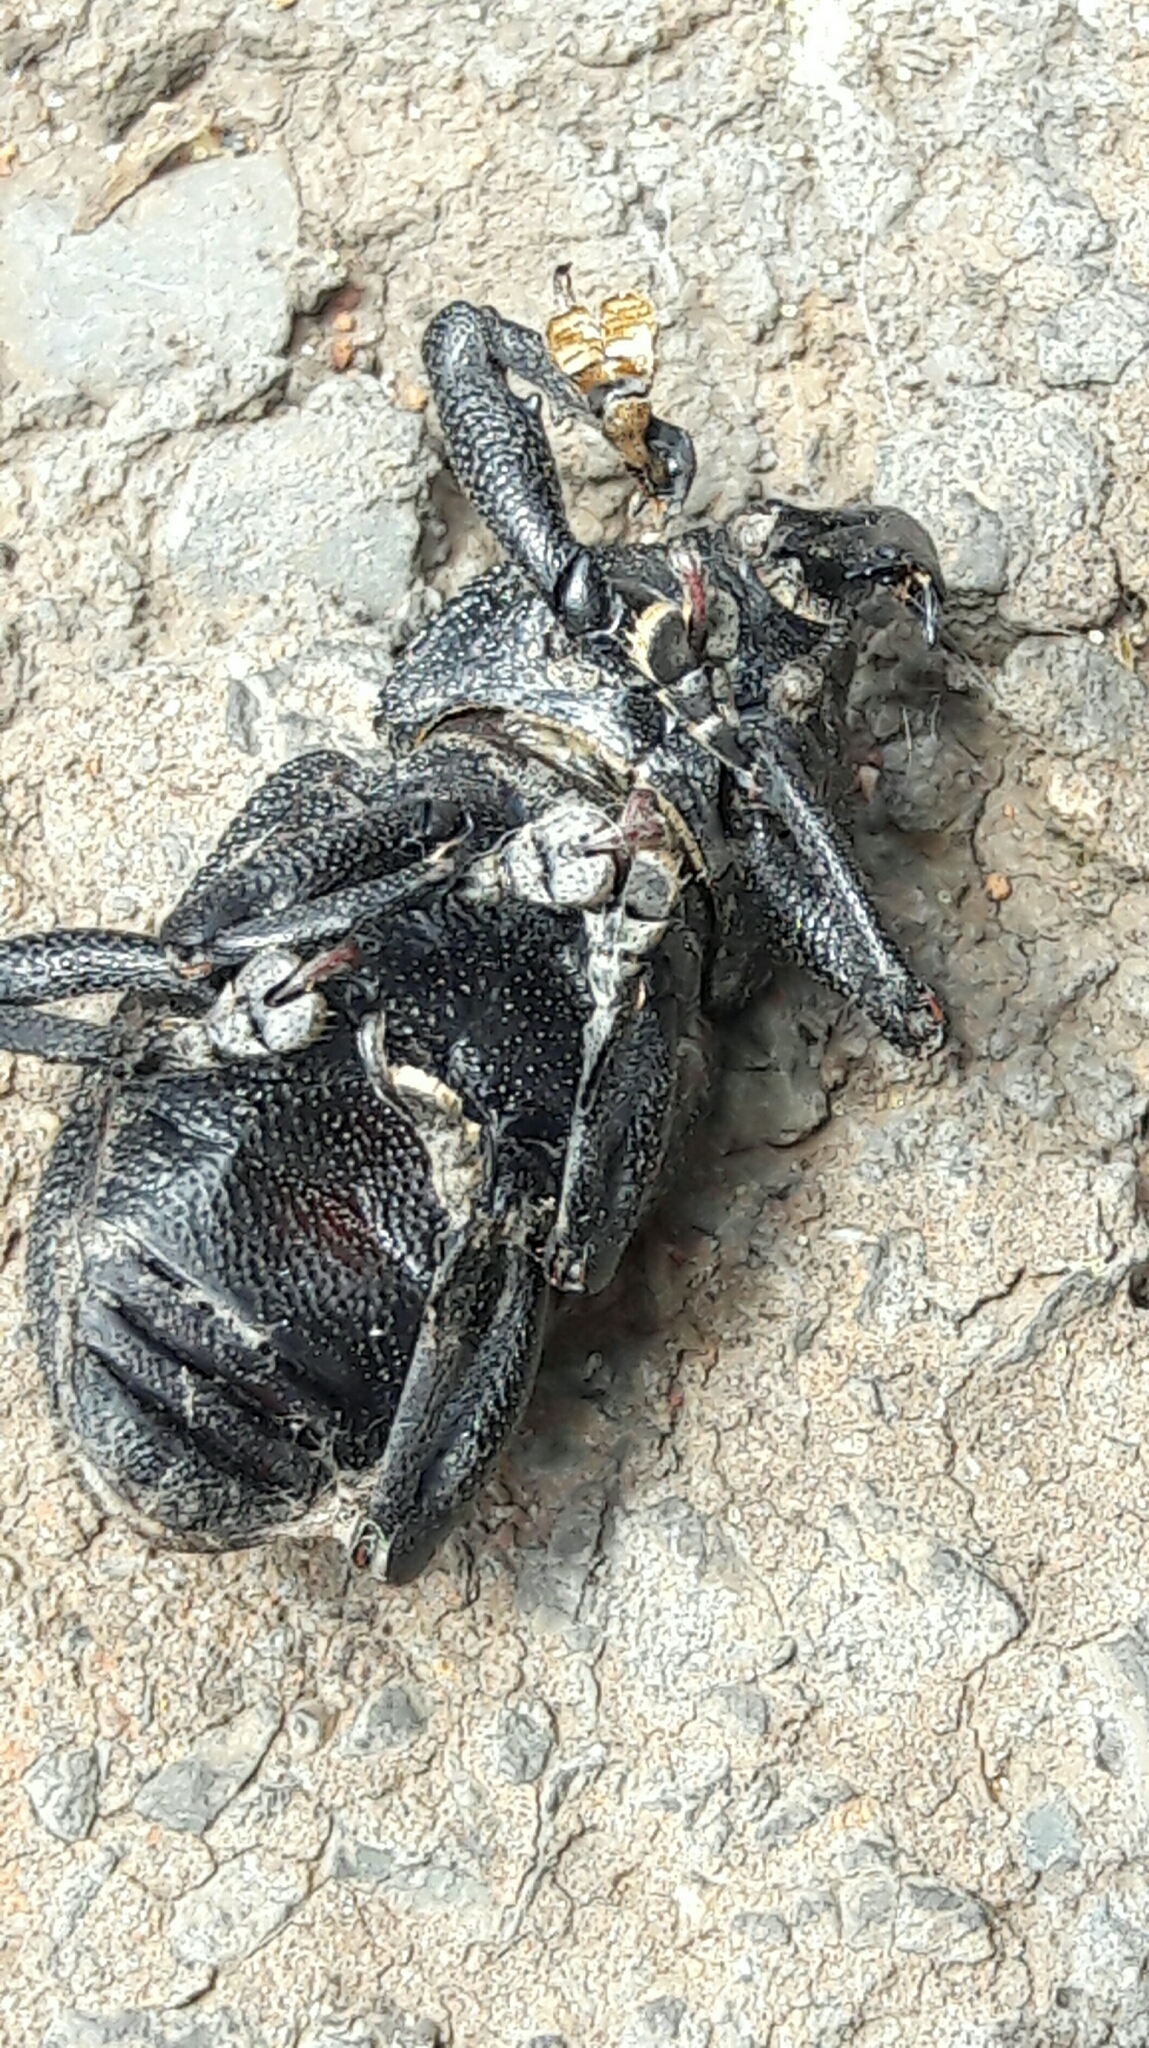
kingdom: Animalia
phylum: Arthropoda
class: Insecta
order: Coleoptera
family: Curculionidae
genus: Homalinotus
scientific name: Homalinotus coriaceus
